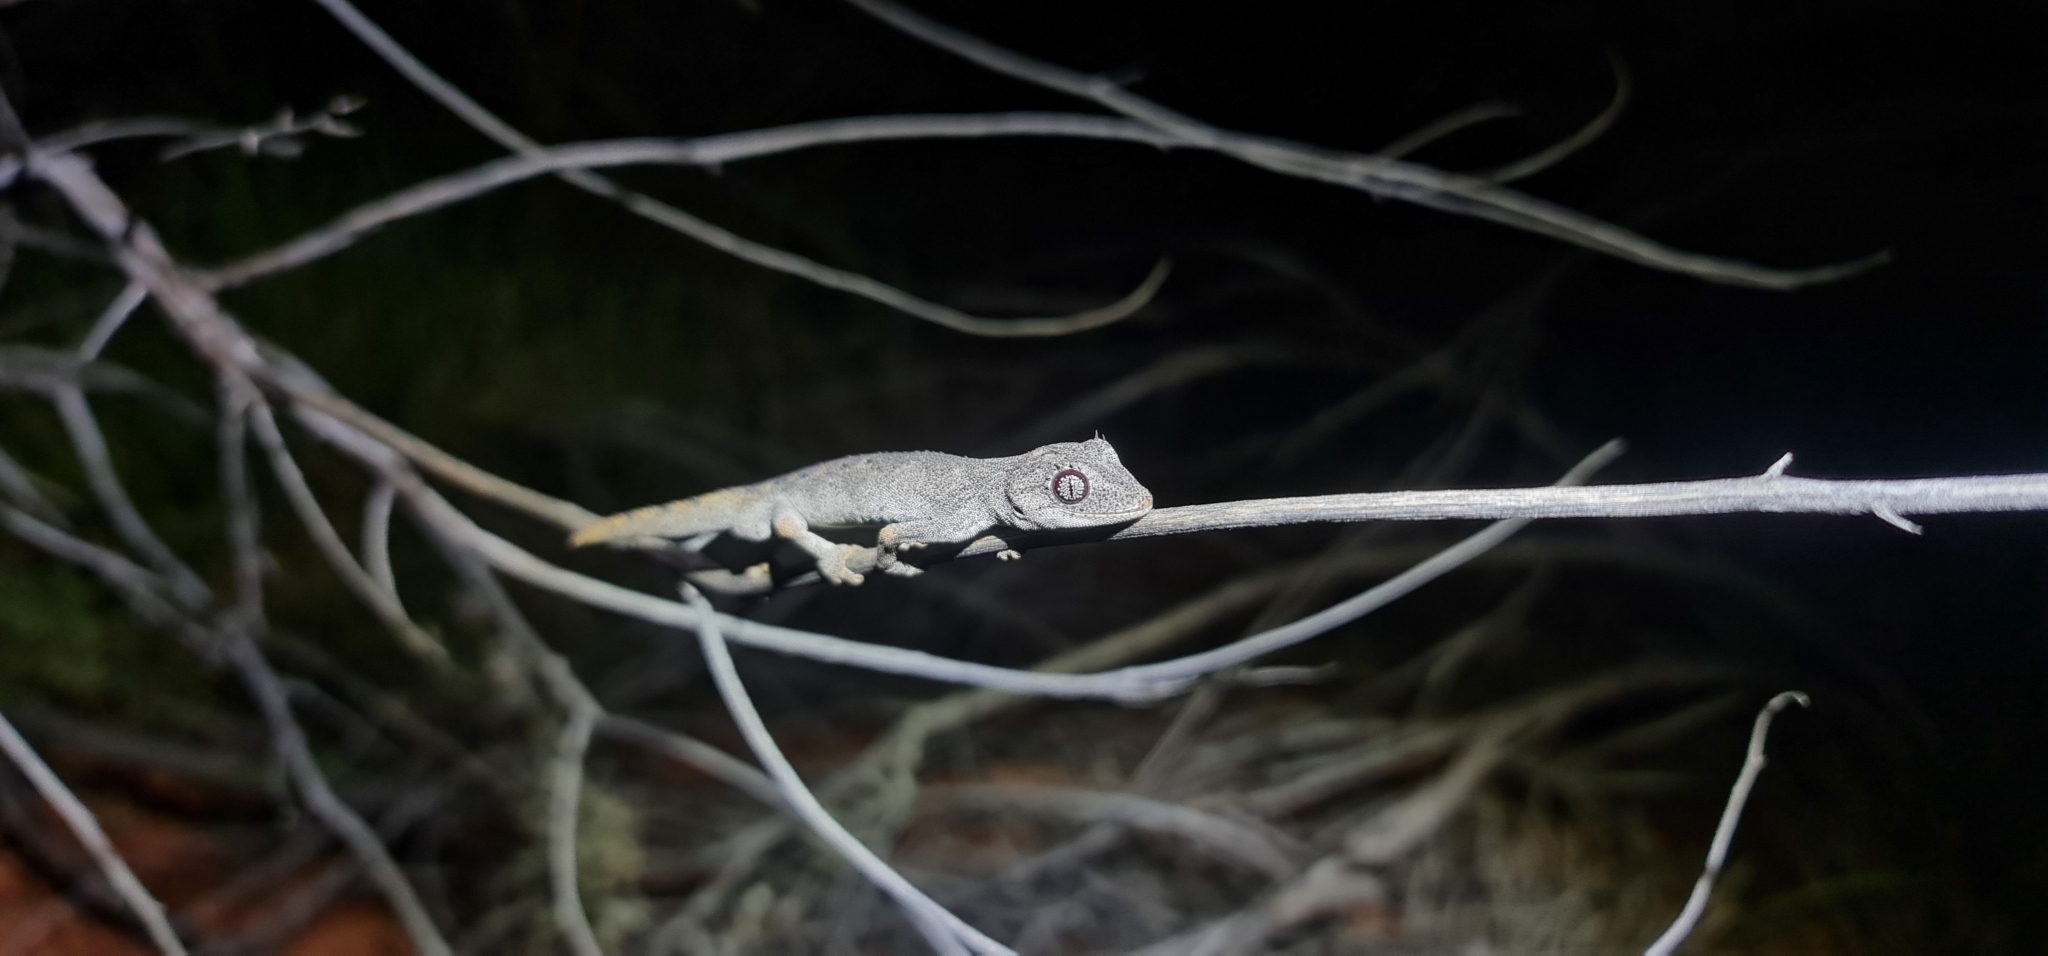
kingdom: Animalia
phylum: Chordata
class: Squamata
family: Diplodactylidae
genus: Strophurus
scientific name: Strophurus ciliaris
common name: Northern spiny-tailed gecko
